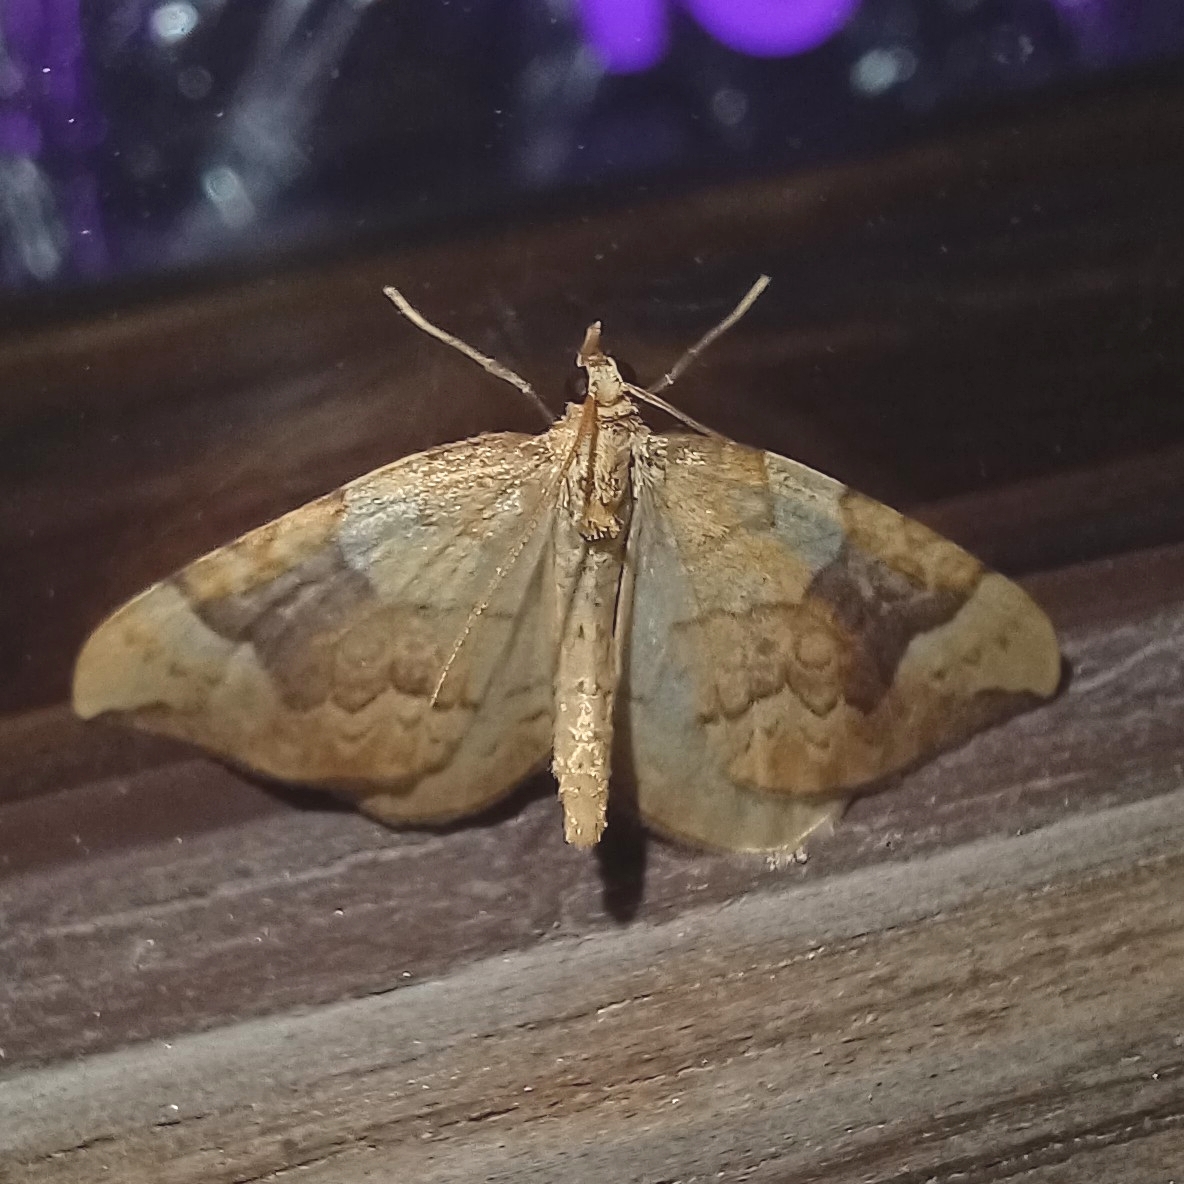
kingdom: Animalia
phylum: Arthropoda
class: Insecta
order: Lepidoptera
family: Geometridae
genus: Eulithis
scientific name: Eulithis populata
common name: Northern spinach
